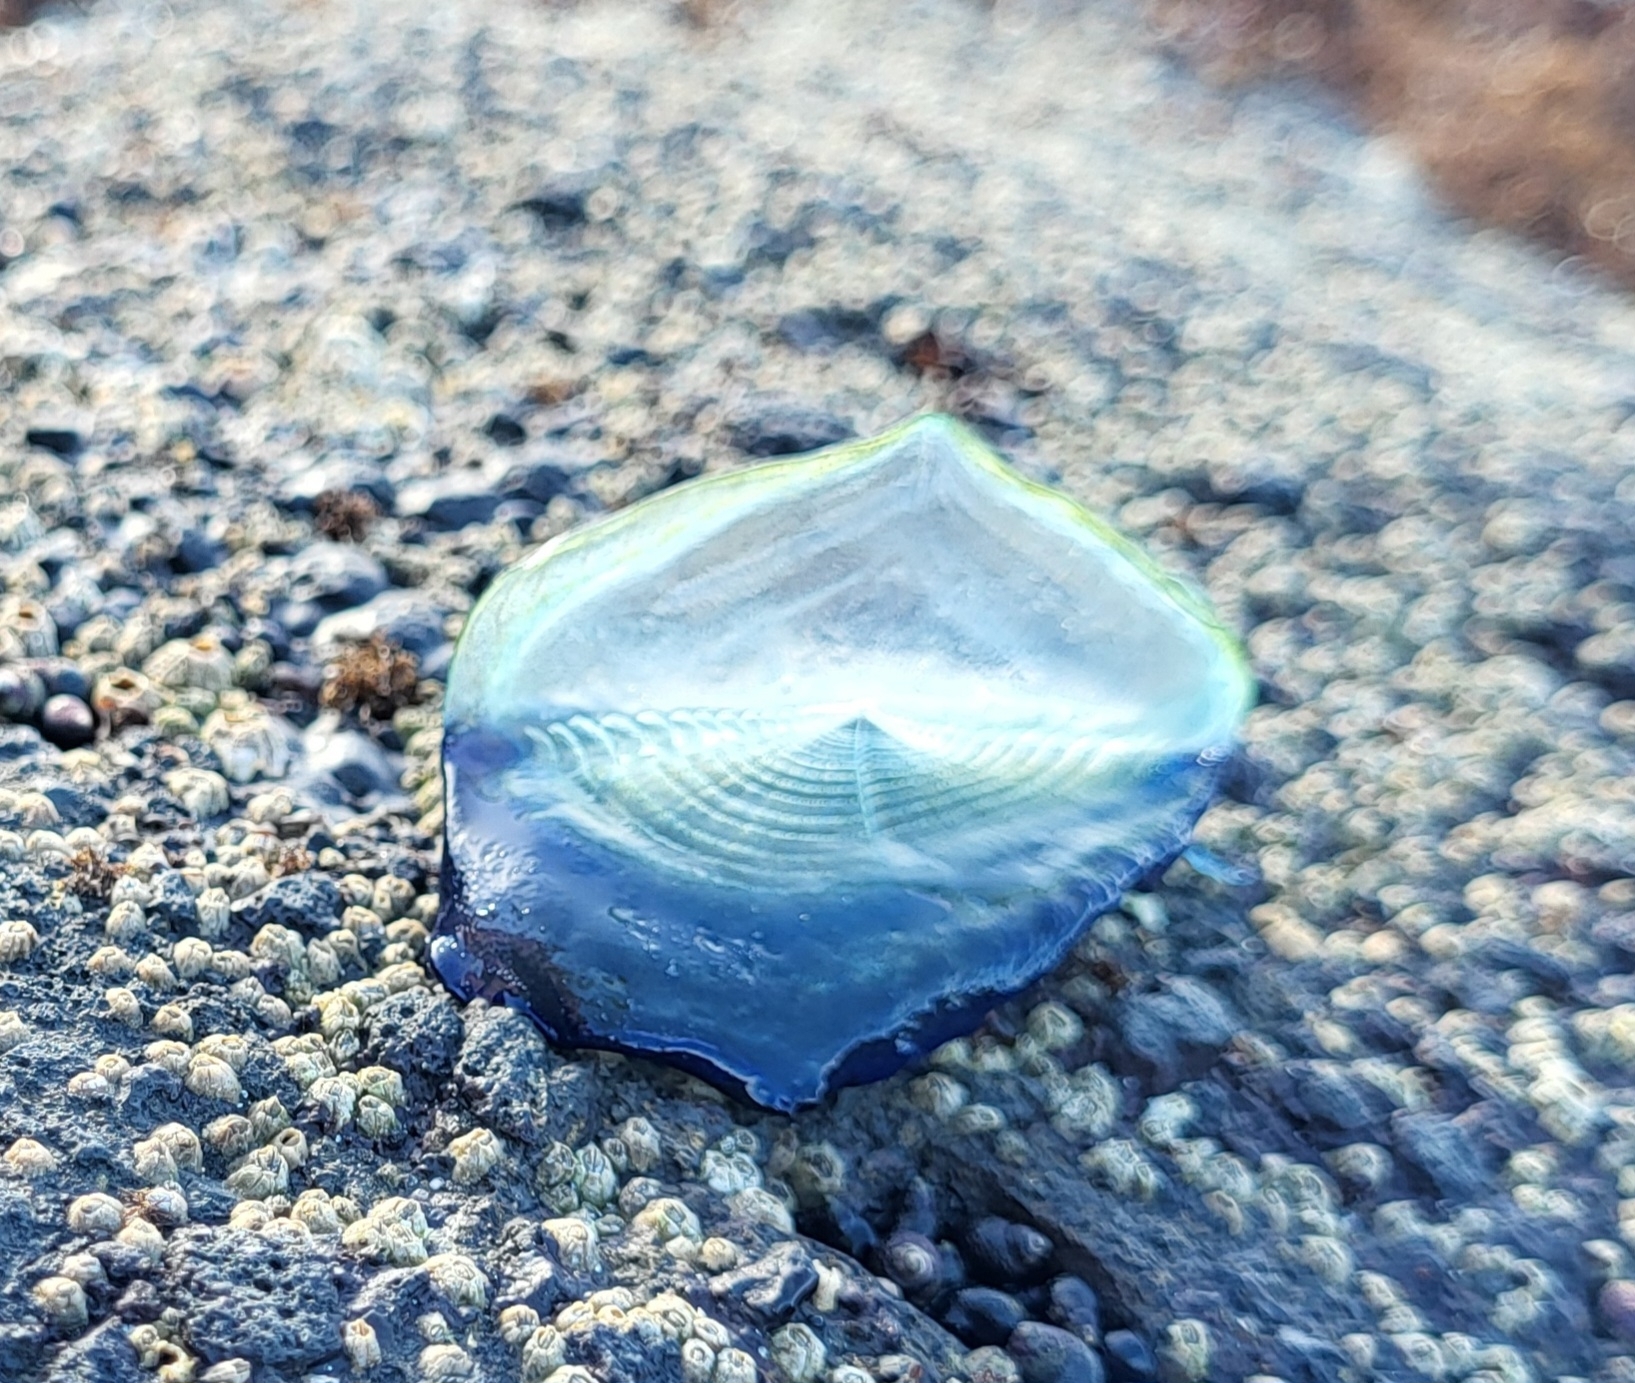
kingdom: Animalia
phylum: Cnidaria
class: Hydrozoa
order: Anthoathecata
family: Porpitidae
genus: Velella
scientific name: Velella velella
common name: By-the-wind-sailor
